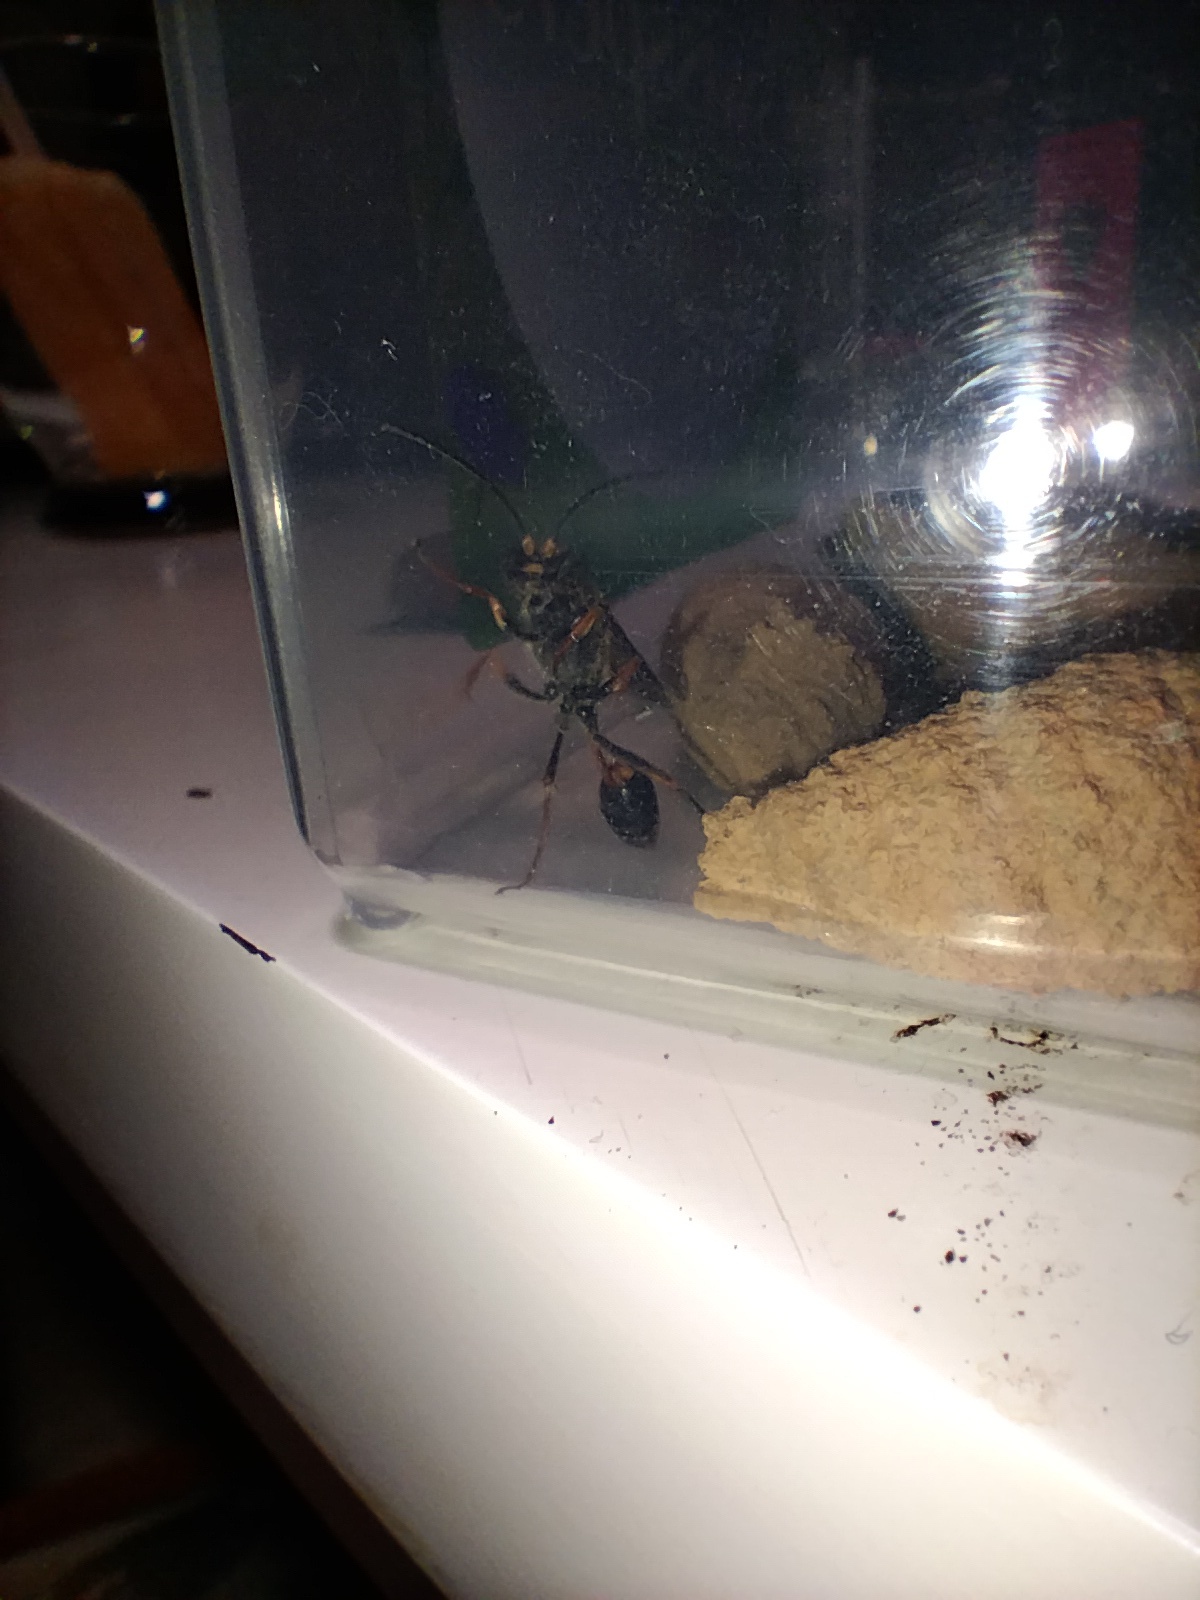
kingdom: Animalia
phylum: Arthropoda
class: Insecta
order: Hymenoptera
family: Sphecidae
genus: Sceliphron
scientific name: Sceliphron formosum
